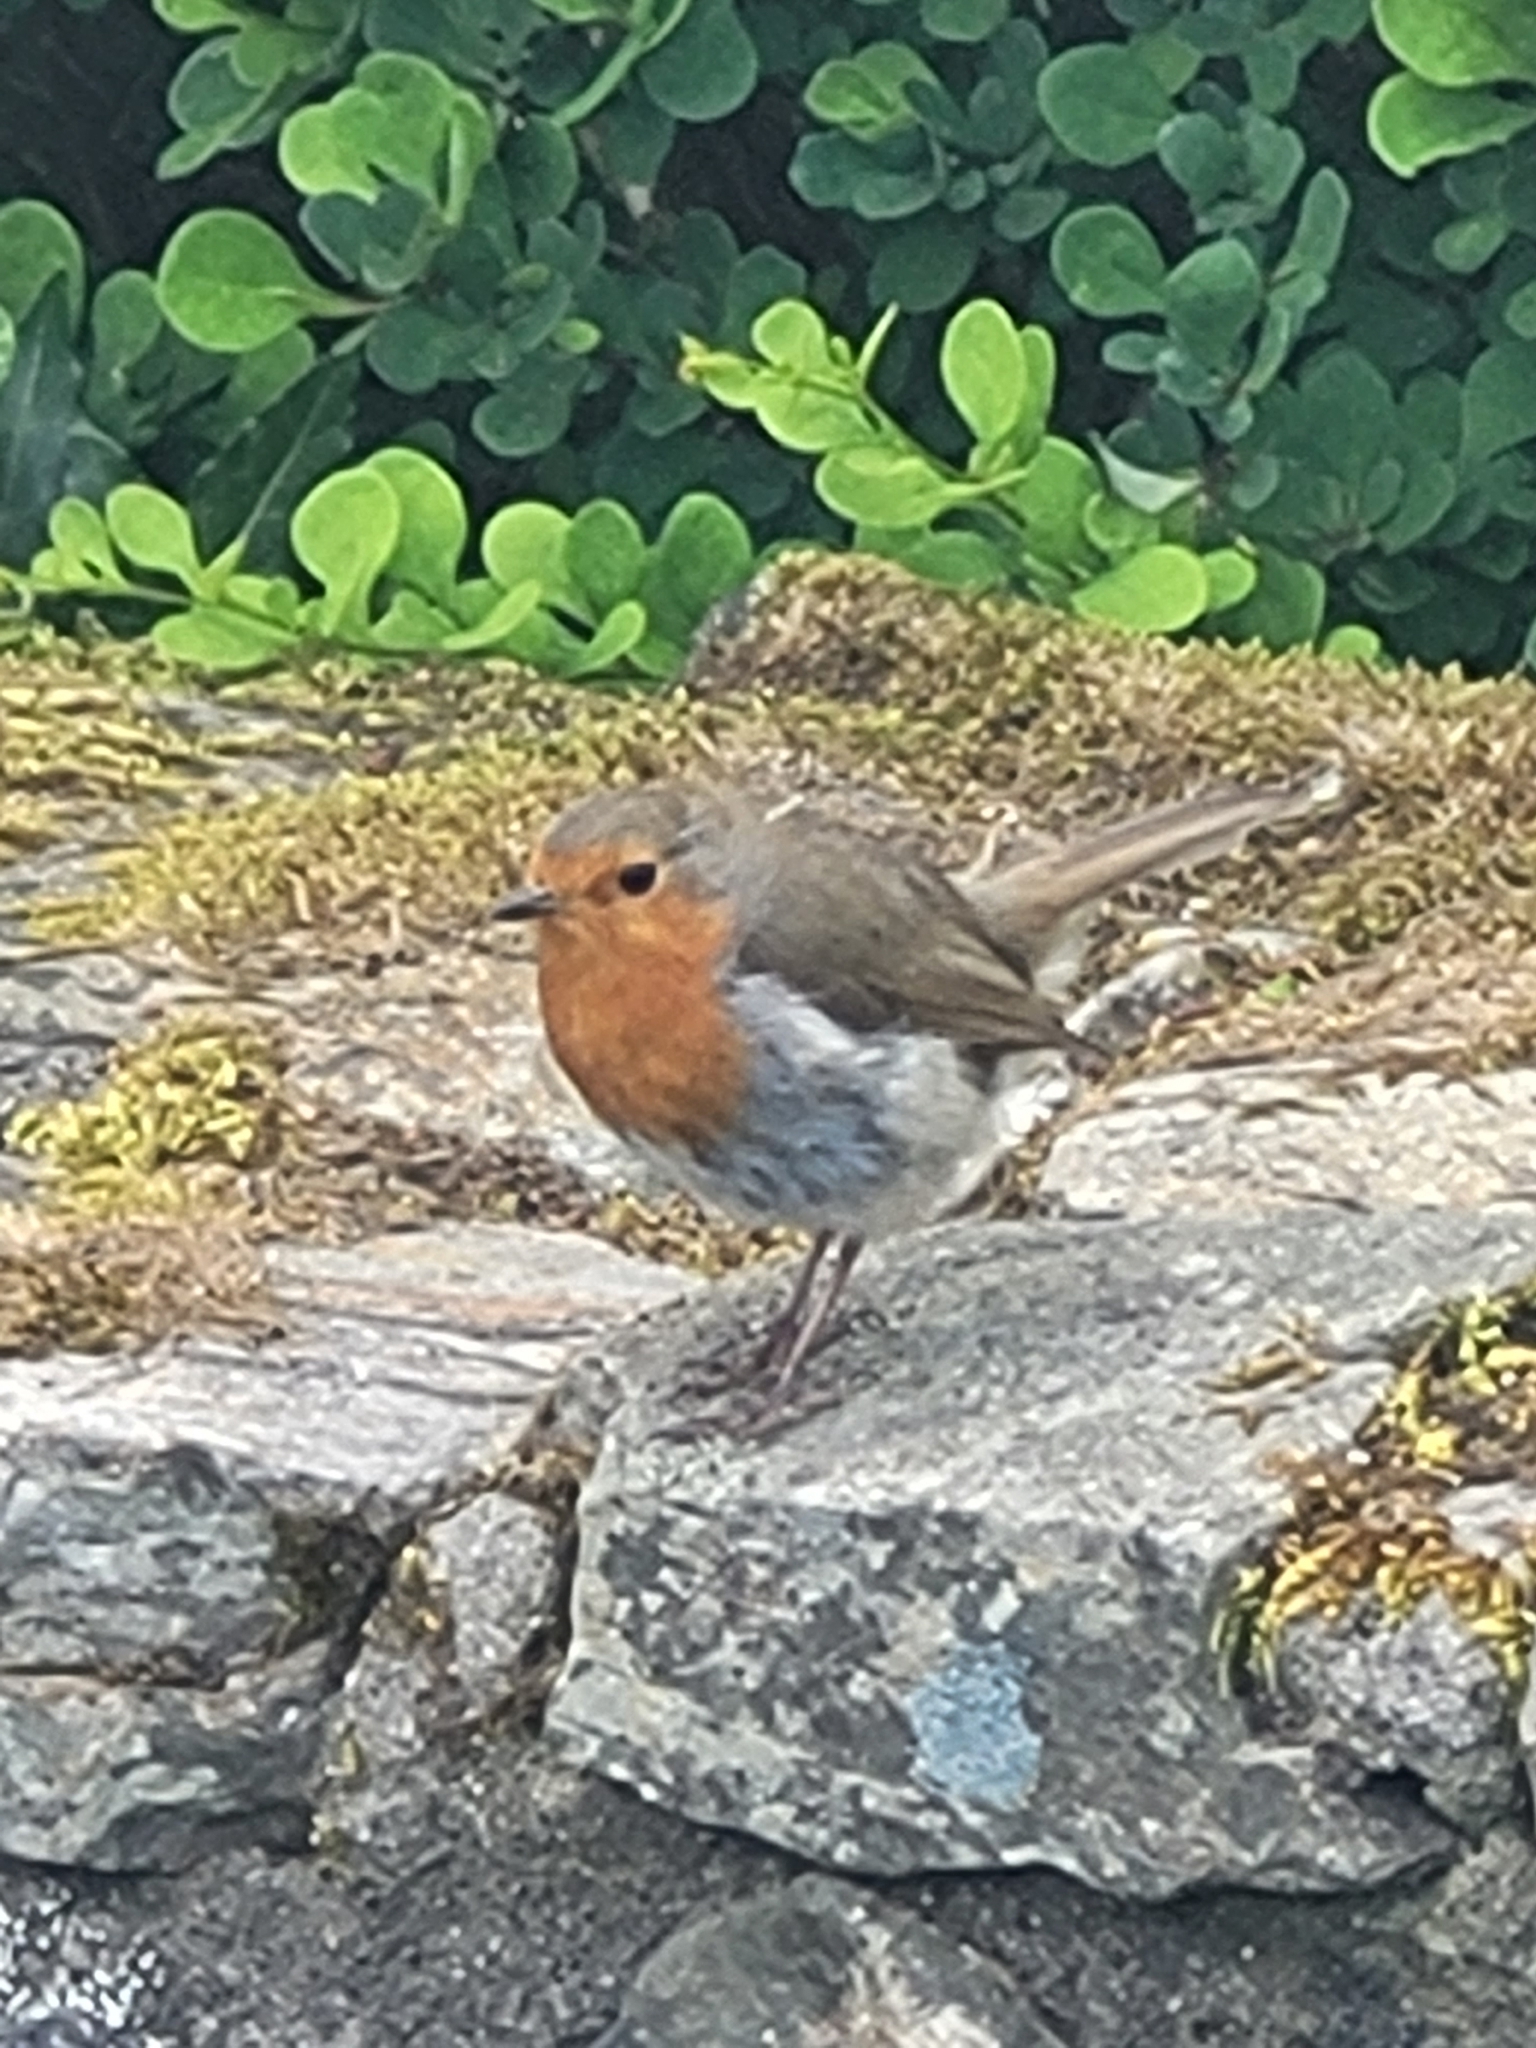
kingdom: Animalia
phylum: Chordata
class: Aves
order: Passeriformes
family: Muscicapidae
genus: Erithacus
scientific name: Erithacus rubecula
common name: European robin
